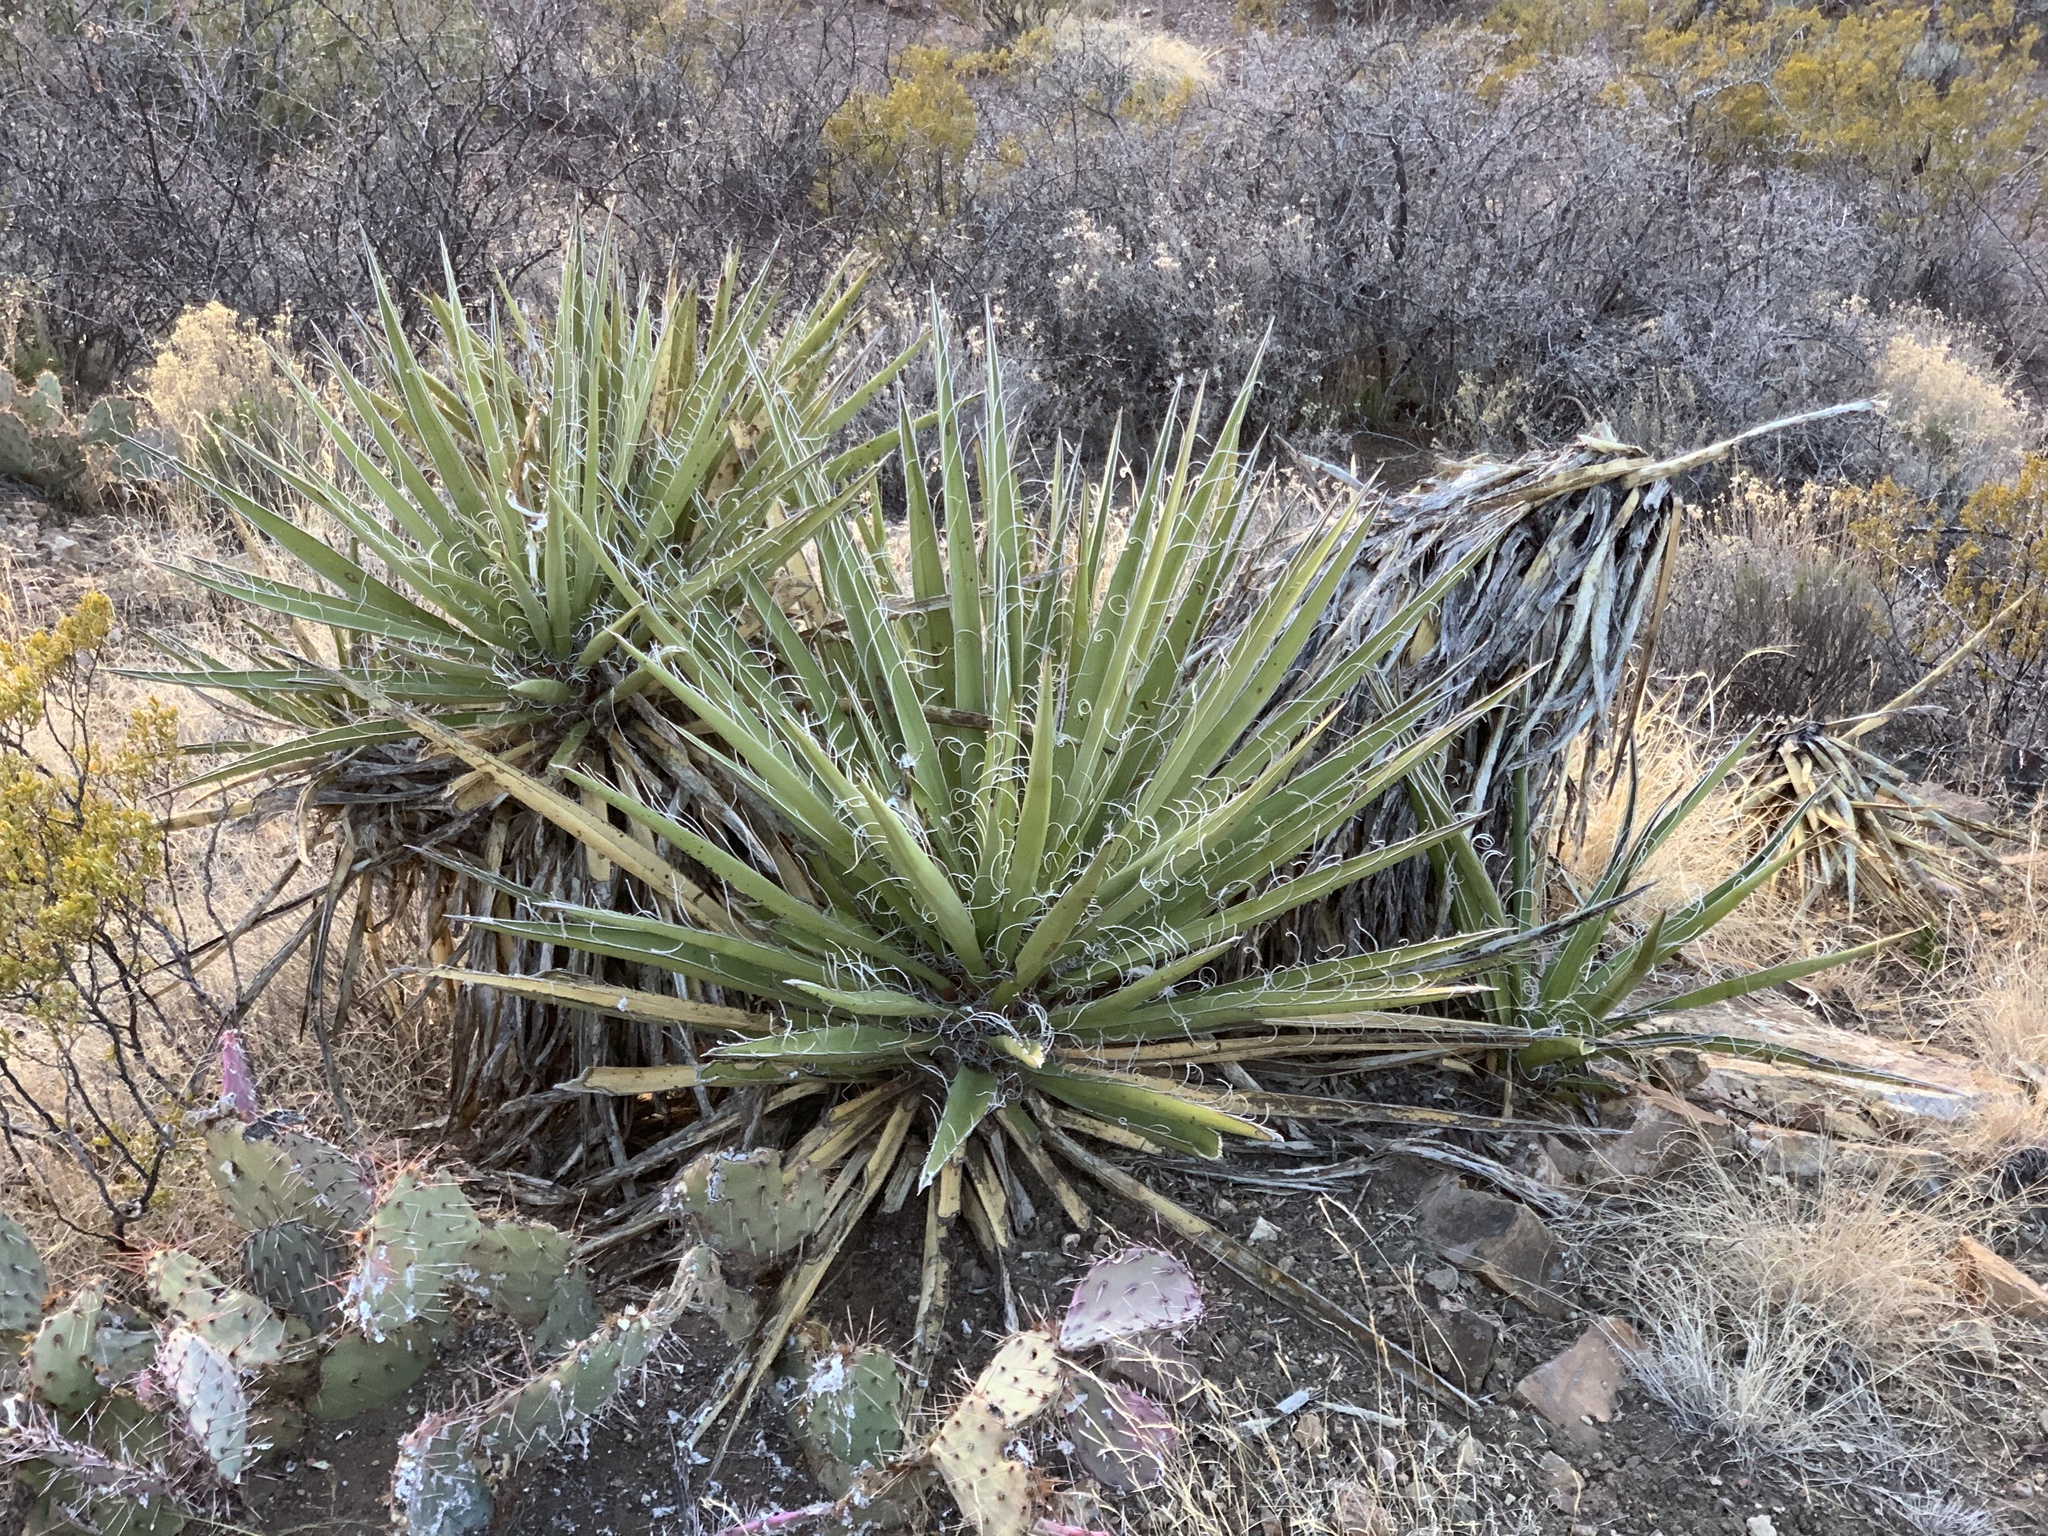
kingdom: Plantae
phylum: Tracheophyta
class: Liliopsida
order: Asparagales
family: Asparagaceae
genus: Yucca
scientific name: Yucca baccata
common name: Banana yucca
